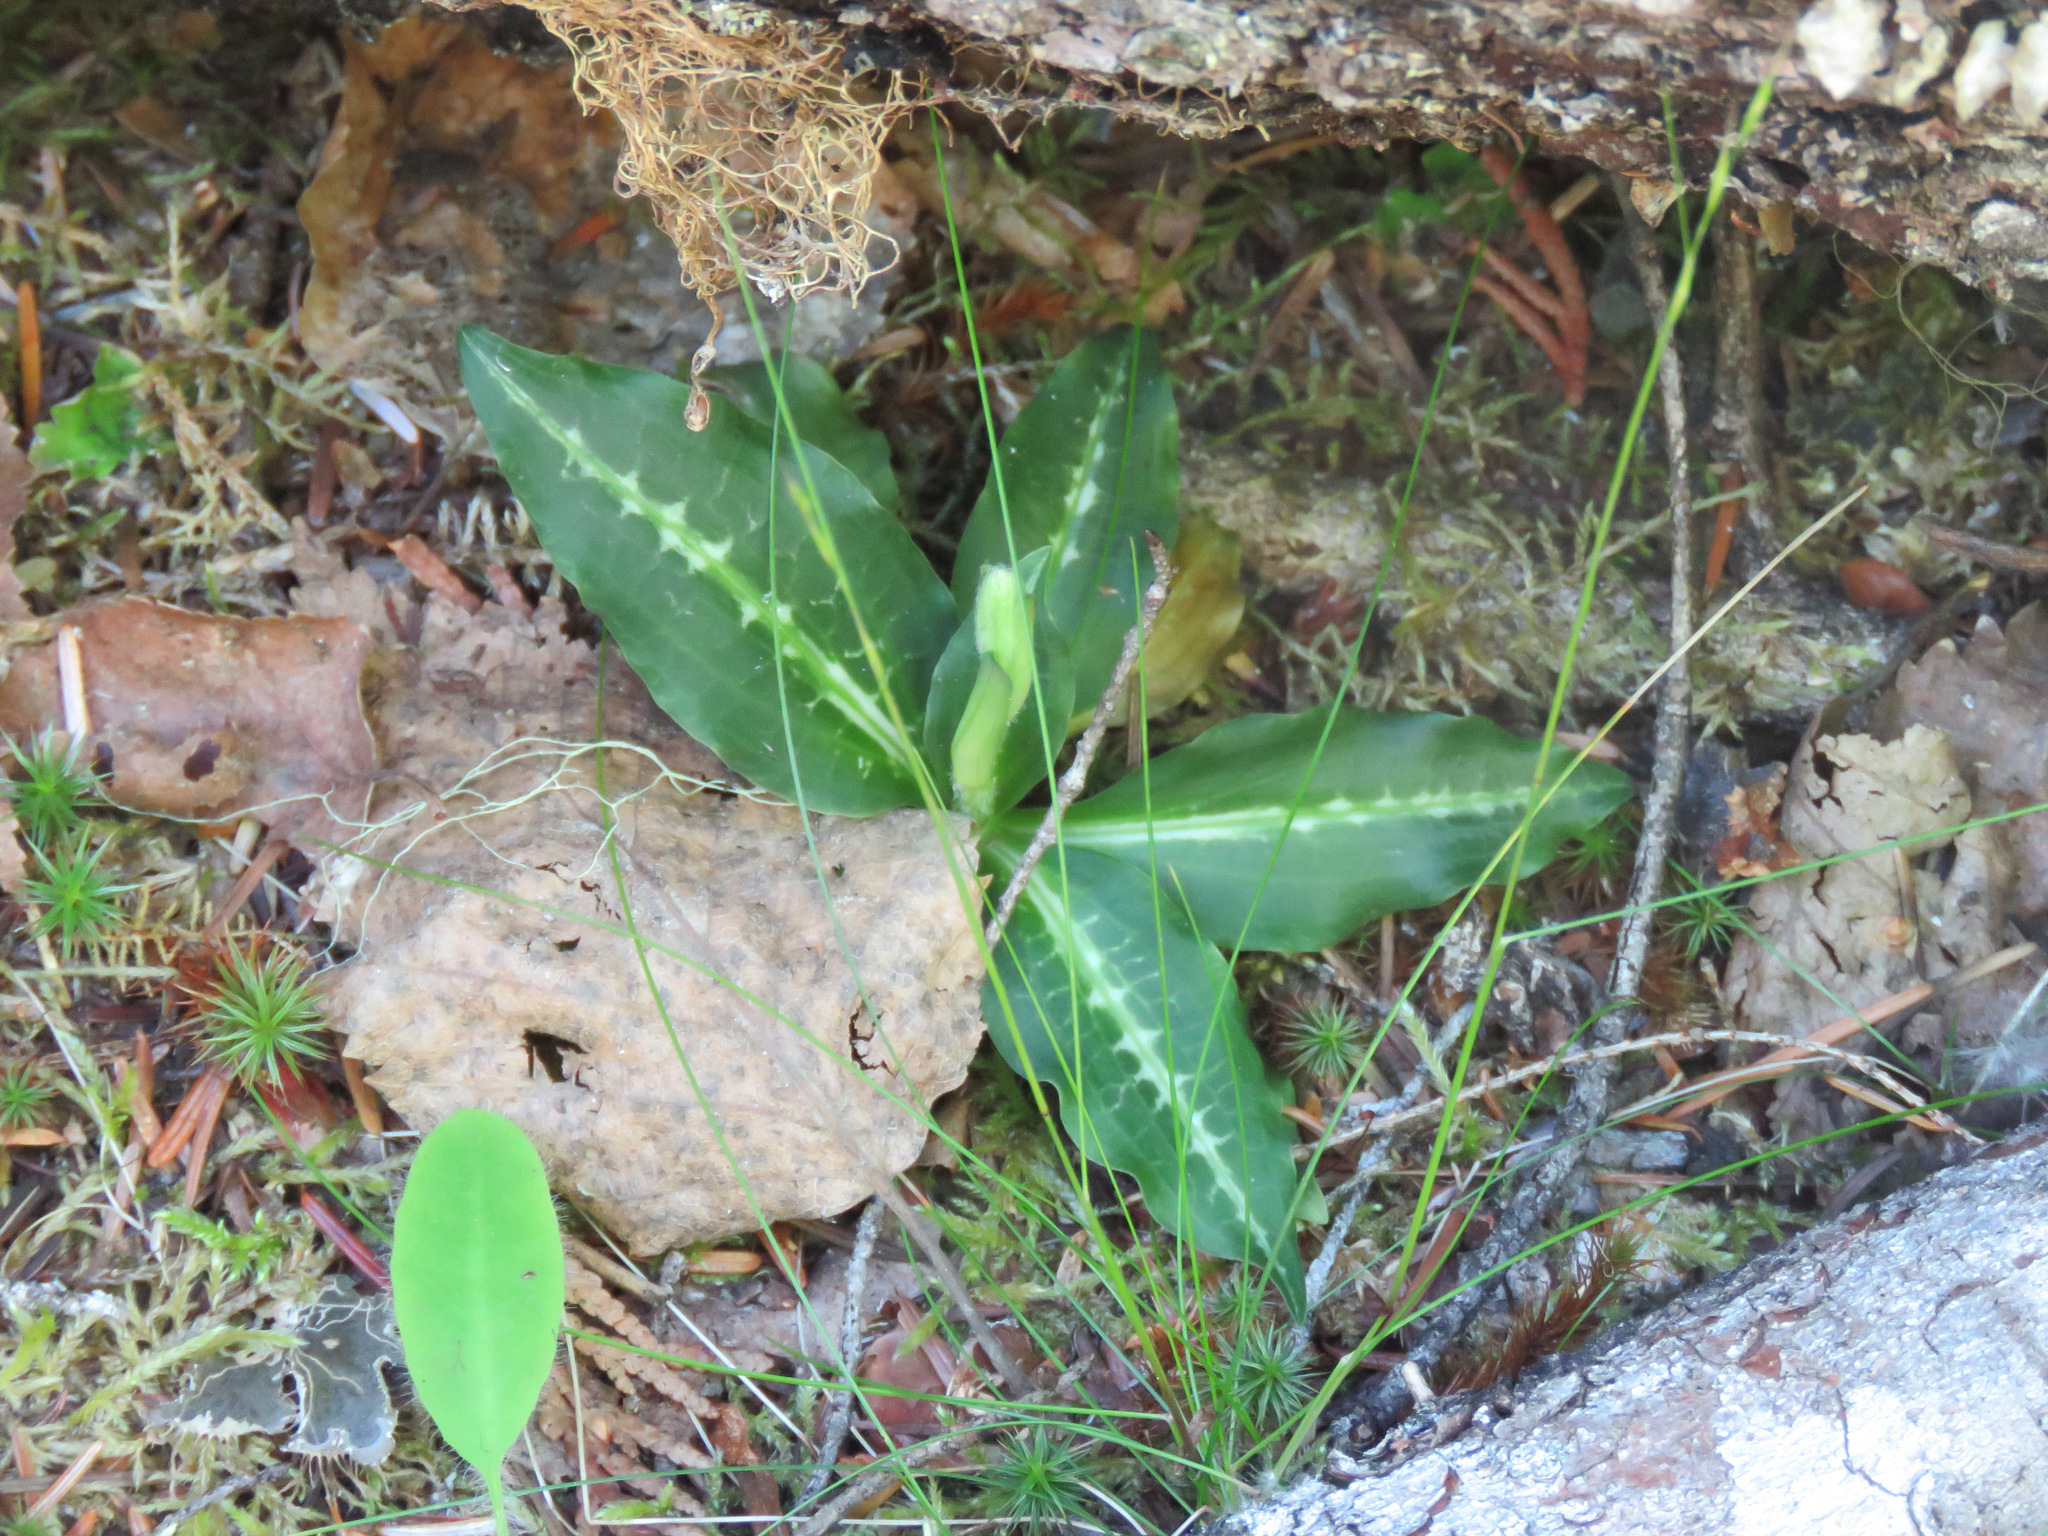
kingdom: Plantae
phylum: Tracheophyta
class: Liliopsida
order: Asparagales
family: Orchidaceae
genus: Goodyera
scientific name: Goodyera oblongifolia
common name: Giant rattlesnake-plantain
